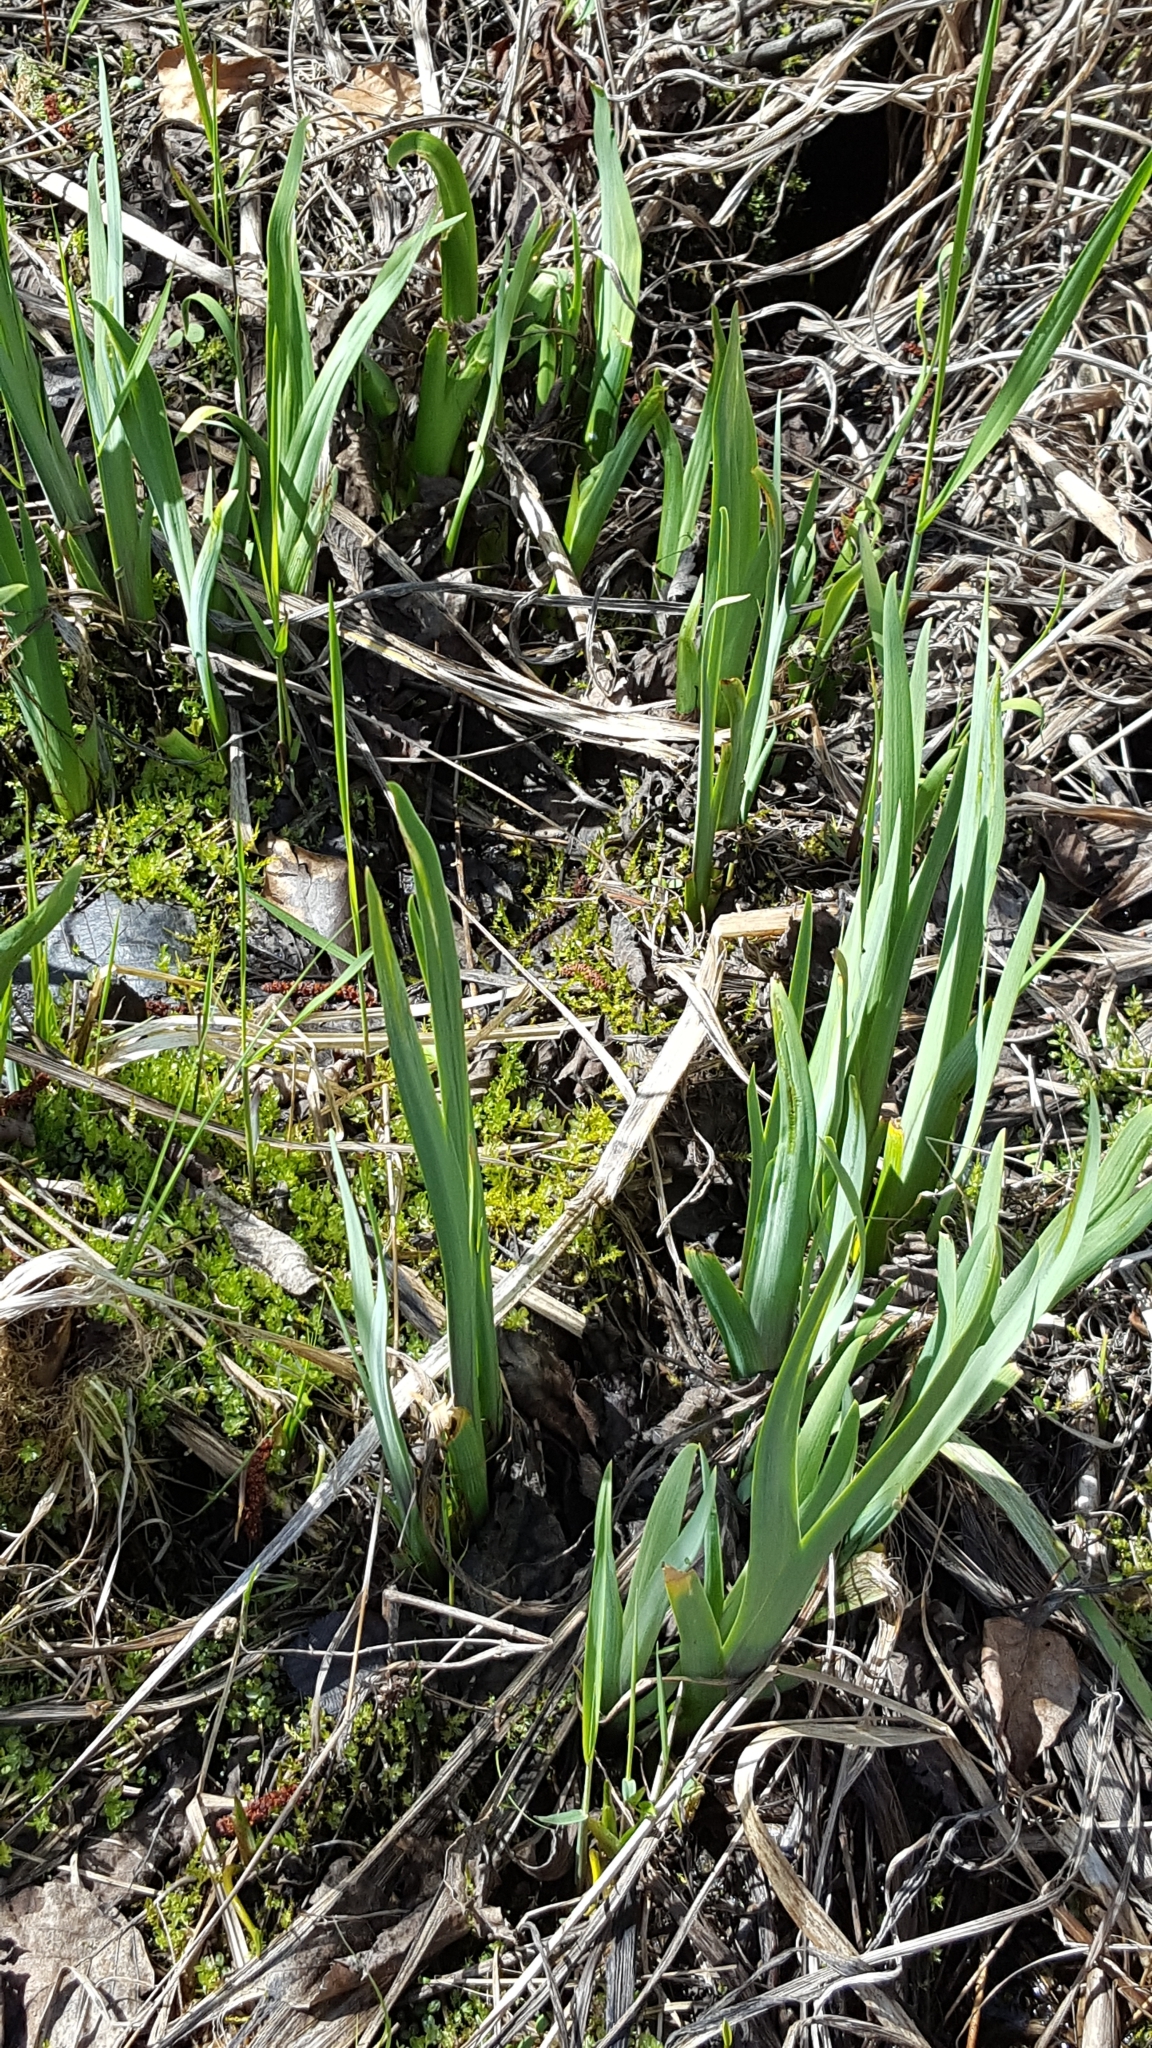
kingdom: Plantae
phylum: Tracheophyta
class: Liliopsida
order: Asparagales
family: Iridaceae
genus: Iris
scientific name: Iris versicolor
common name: Purple iris
